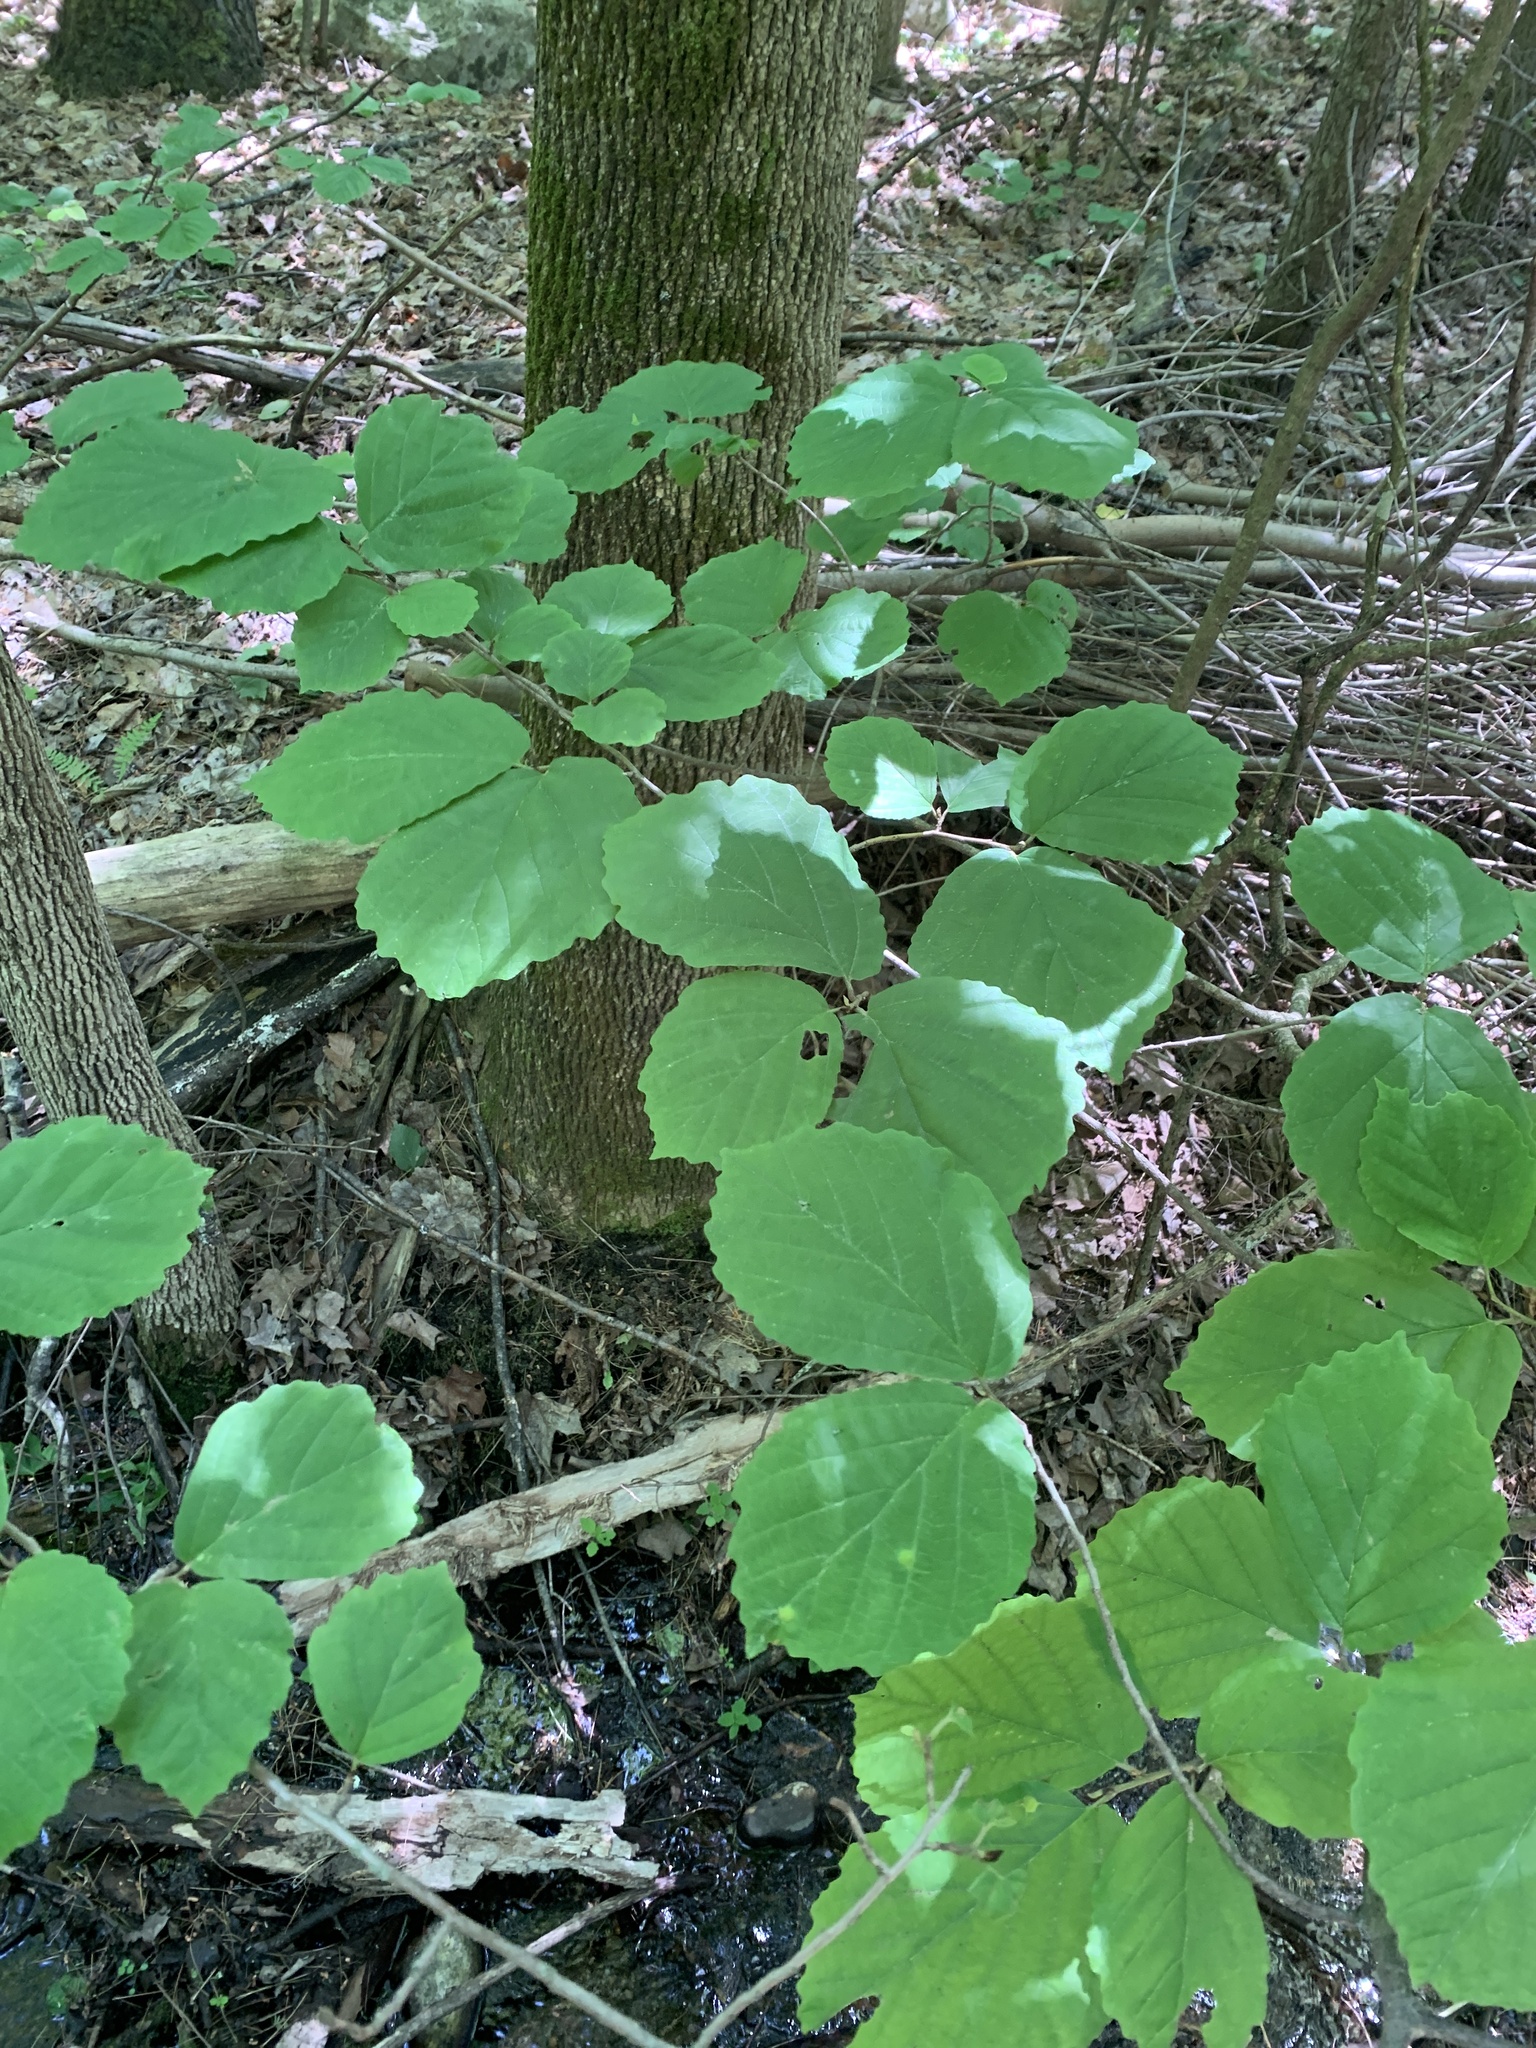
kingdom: Plantae
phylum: Tracheophyta
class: Magnoliopsida
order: Saxifragales
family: Hamamelidaceae
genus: Hamamelis
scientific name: Hamamelis virginiana
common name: Witch-hazel
